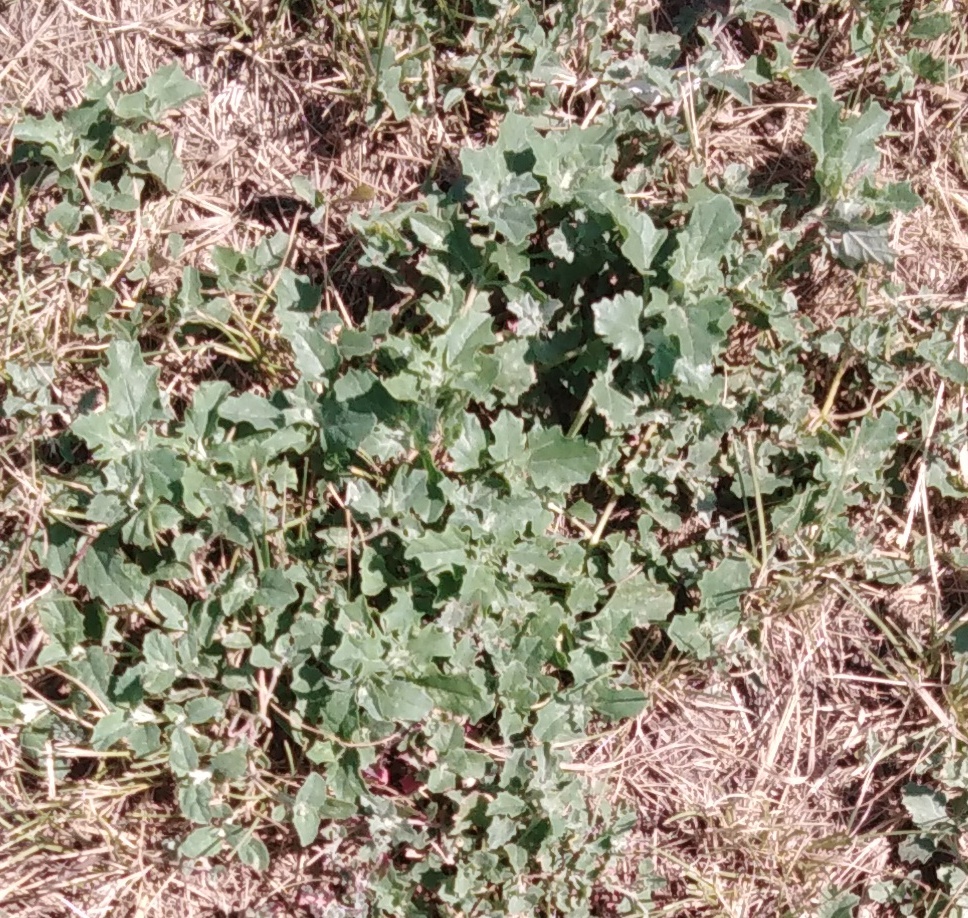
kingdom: Plantae
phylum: Tracheophyta
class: Magnoliopsida
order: Caryophyllales
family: Amaranthaceae
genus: Atriplex
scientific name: Atriplex tatarica
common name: Tatarian orache
